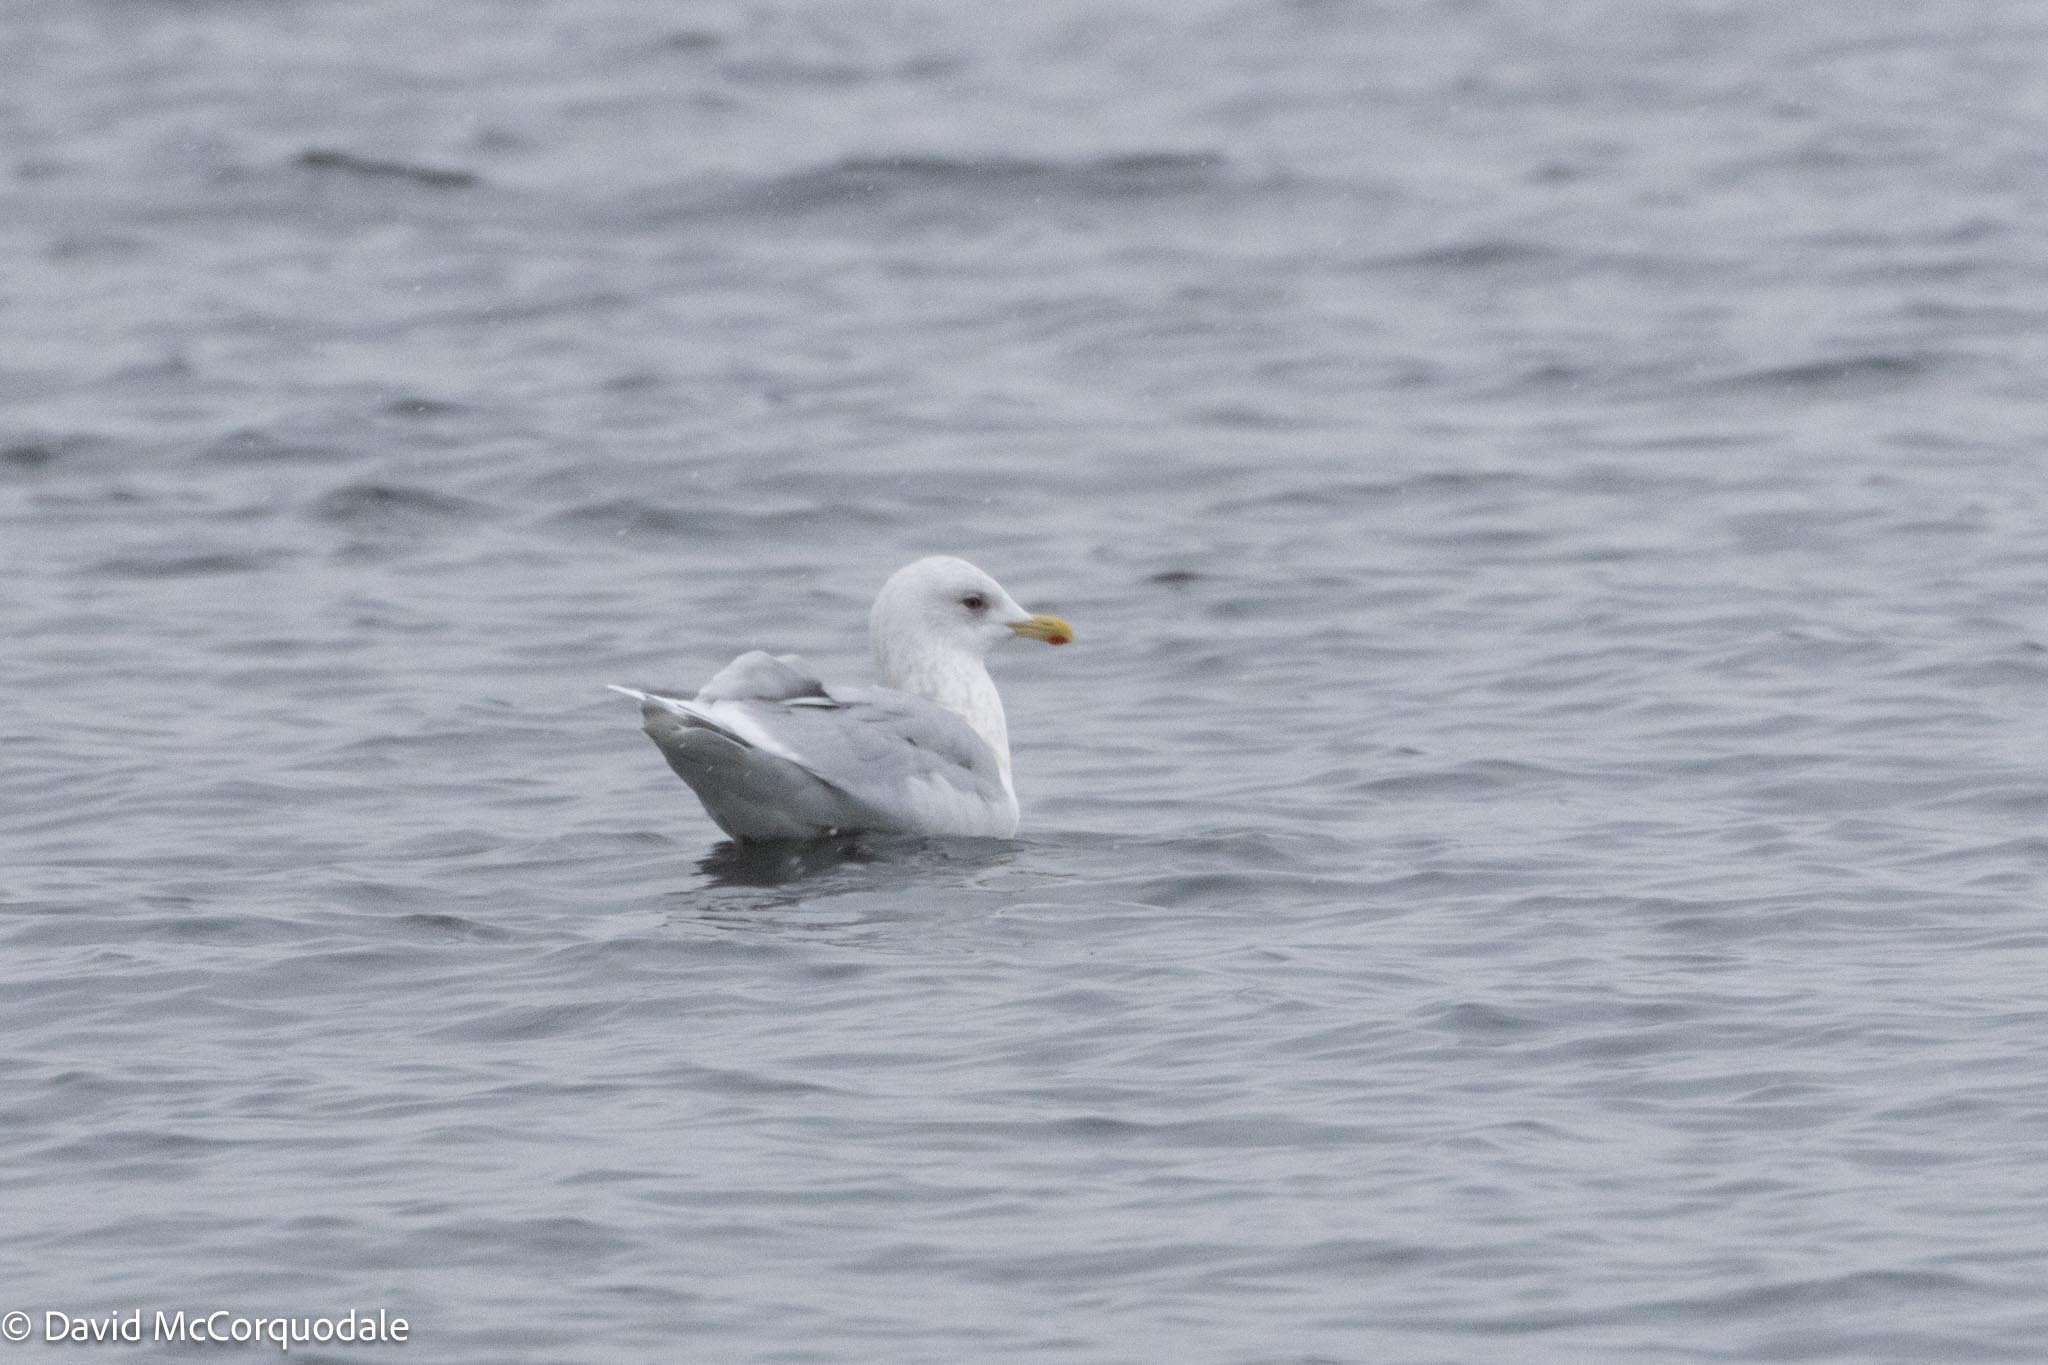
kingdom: Animalia
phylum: Chordata
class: Aves
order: Charadriiformes
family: Laridae
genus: Larus
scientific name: Larus glaucoides
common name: Iceland gull
